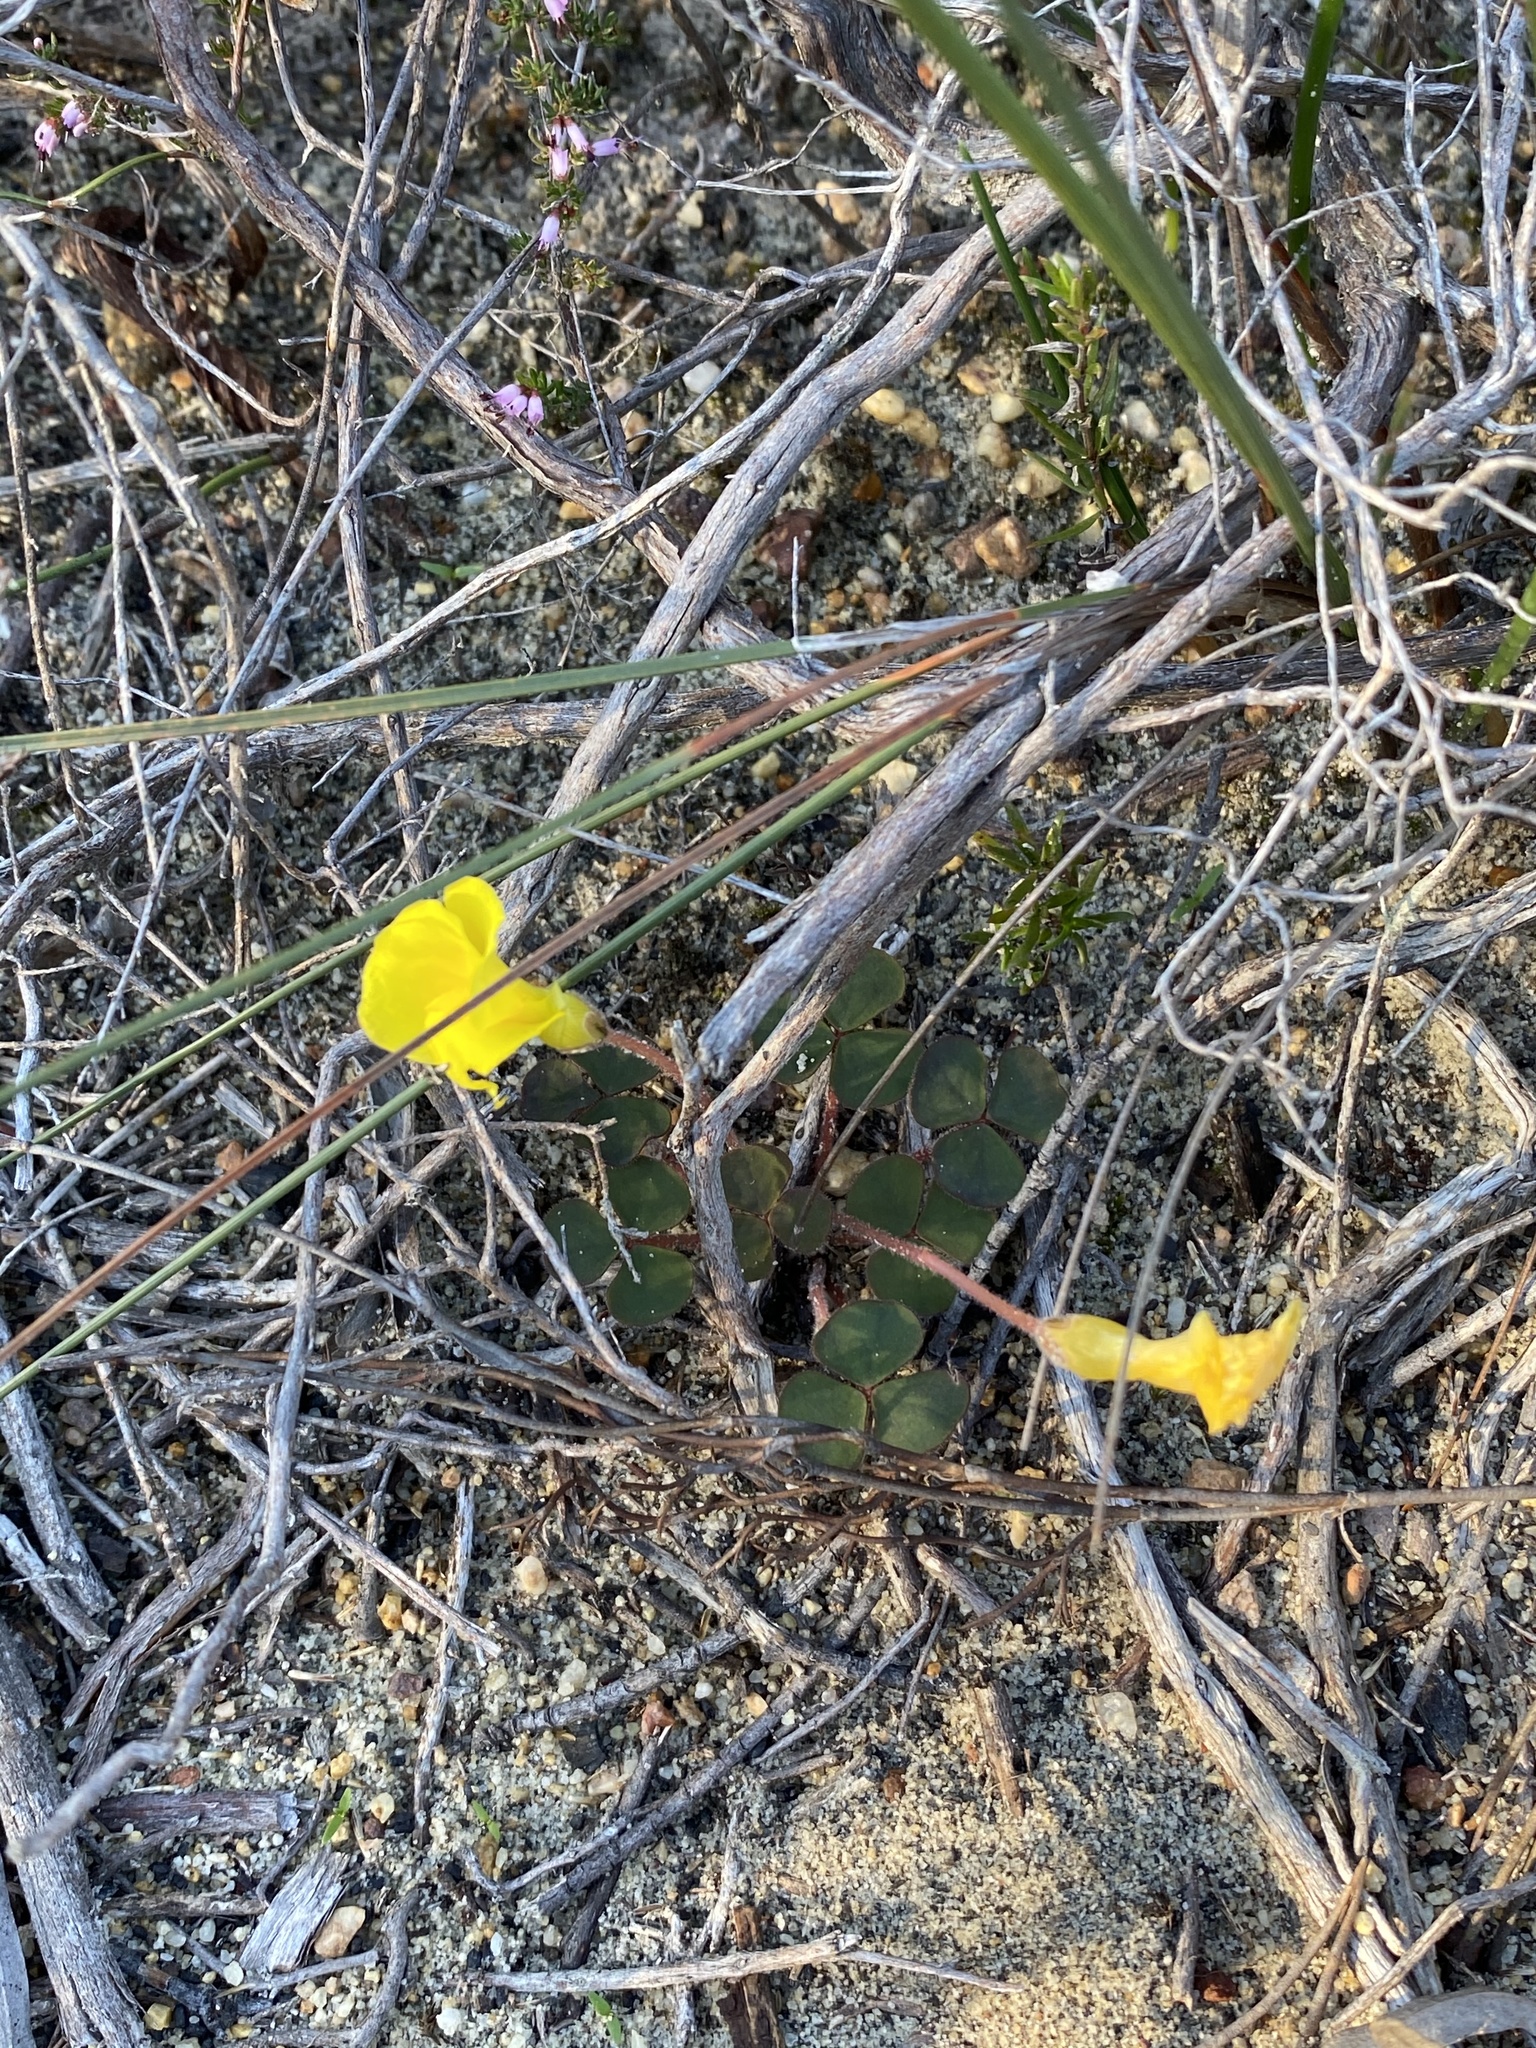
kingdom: Plantae
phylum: Tracheophyta
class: Magnoliopsida
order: Oxalidales
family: Oxalidaceae
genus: Oxalis
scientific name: Oxalis luteola
